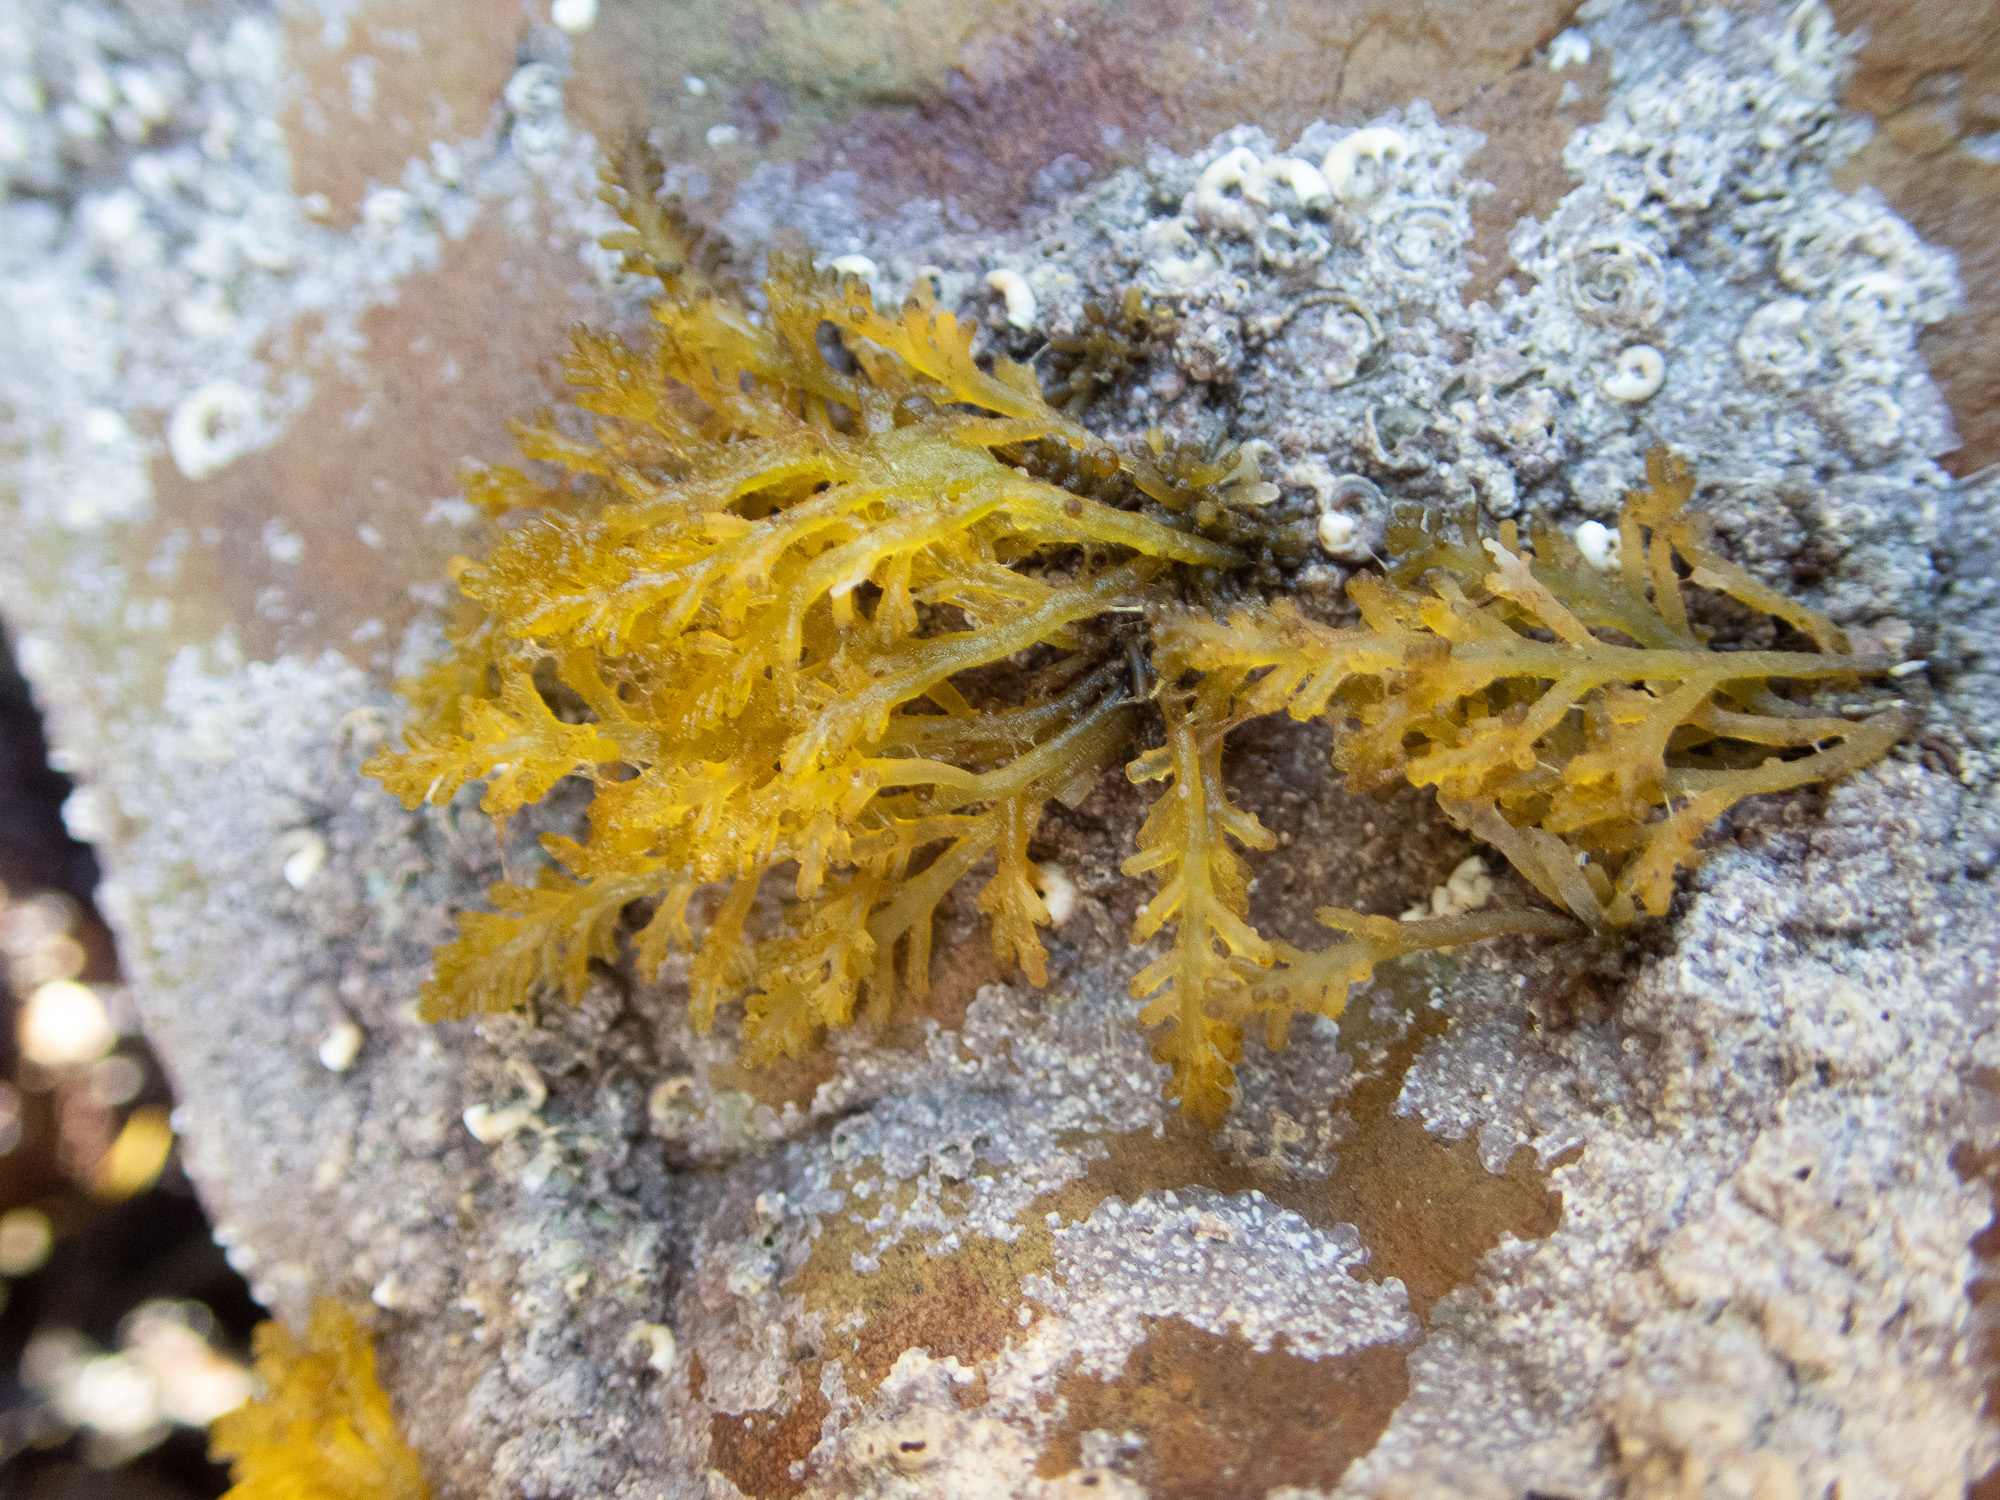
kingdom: Plantae
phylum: Rhodophyta
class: Florideophyceae
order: Ceramiales
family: Rhodomelaceae
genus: Osmundea
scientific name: Osmundea hybrida
